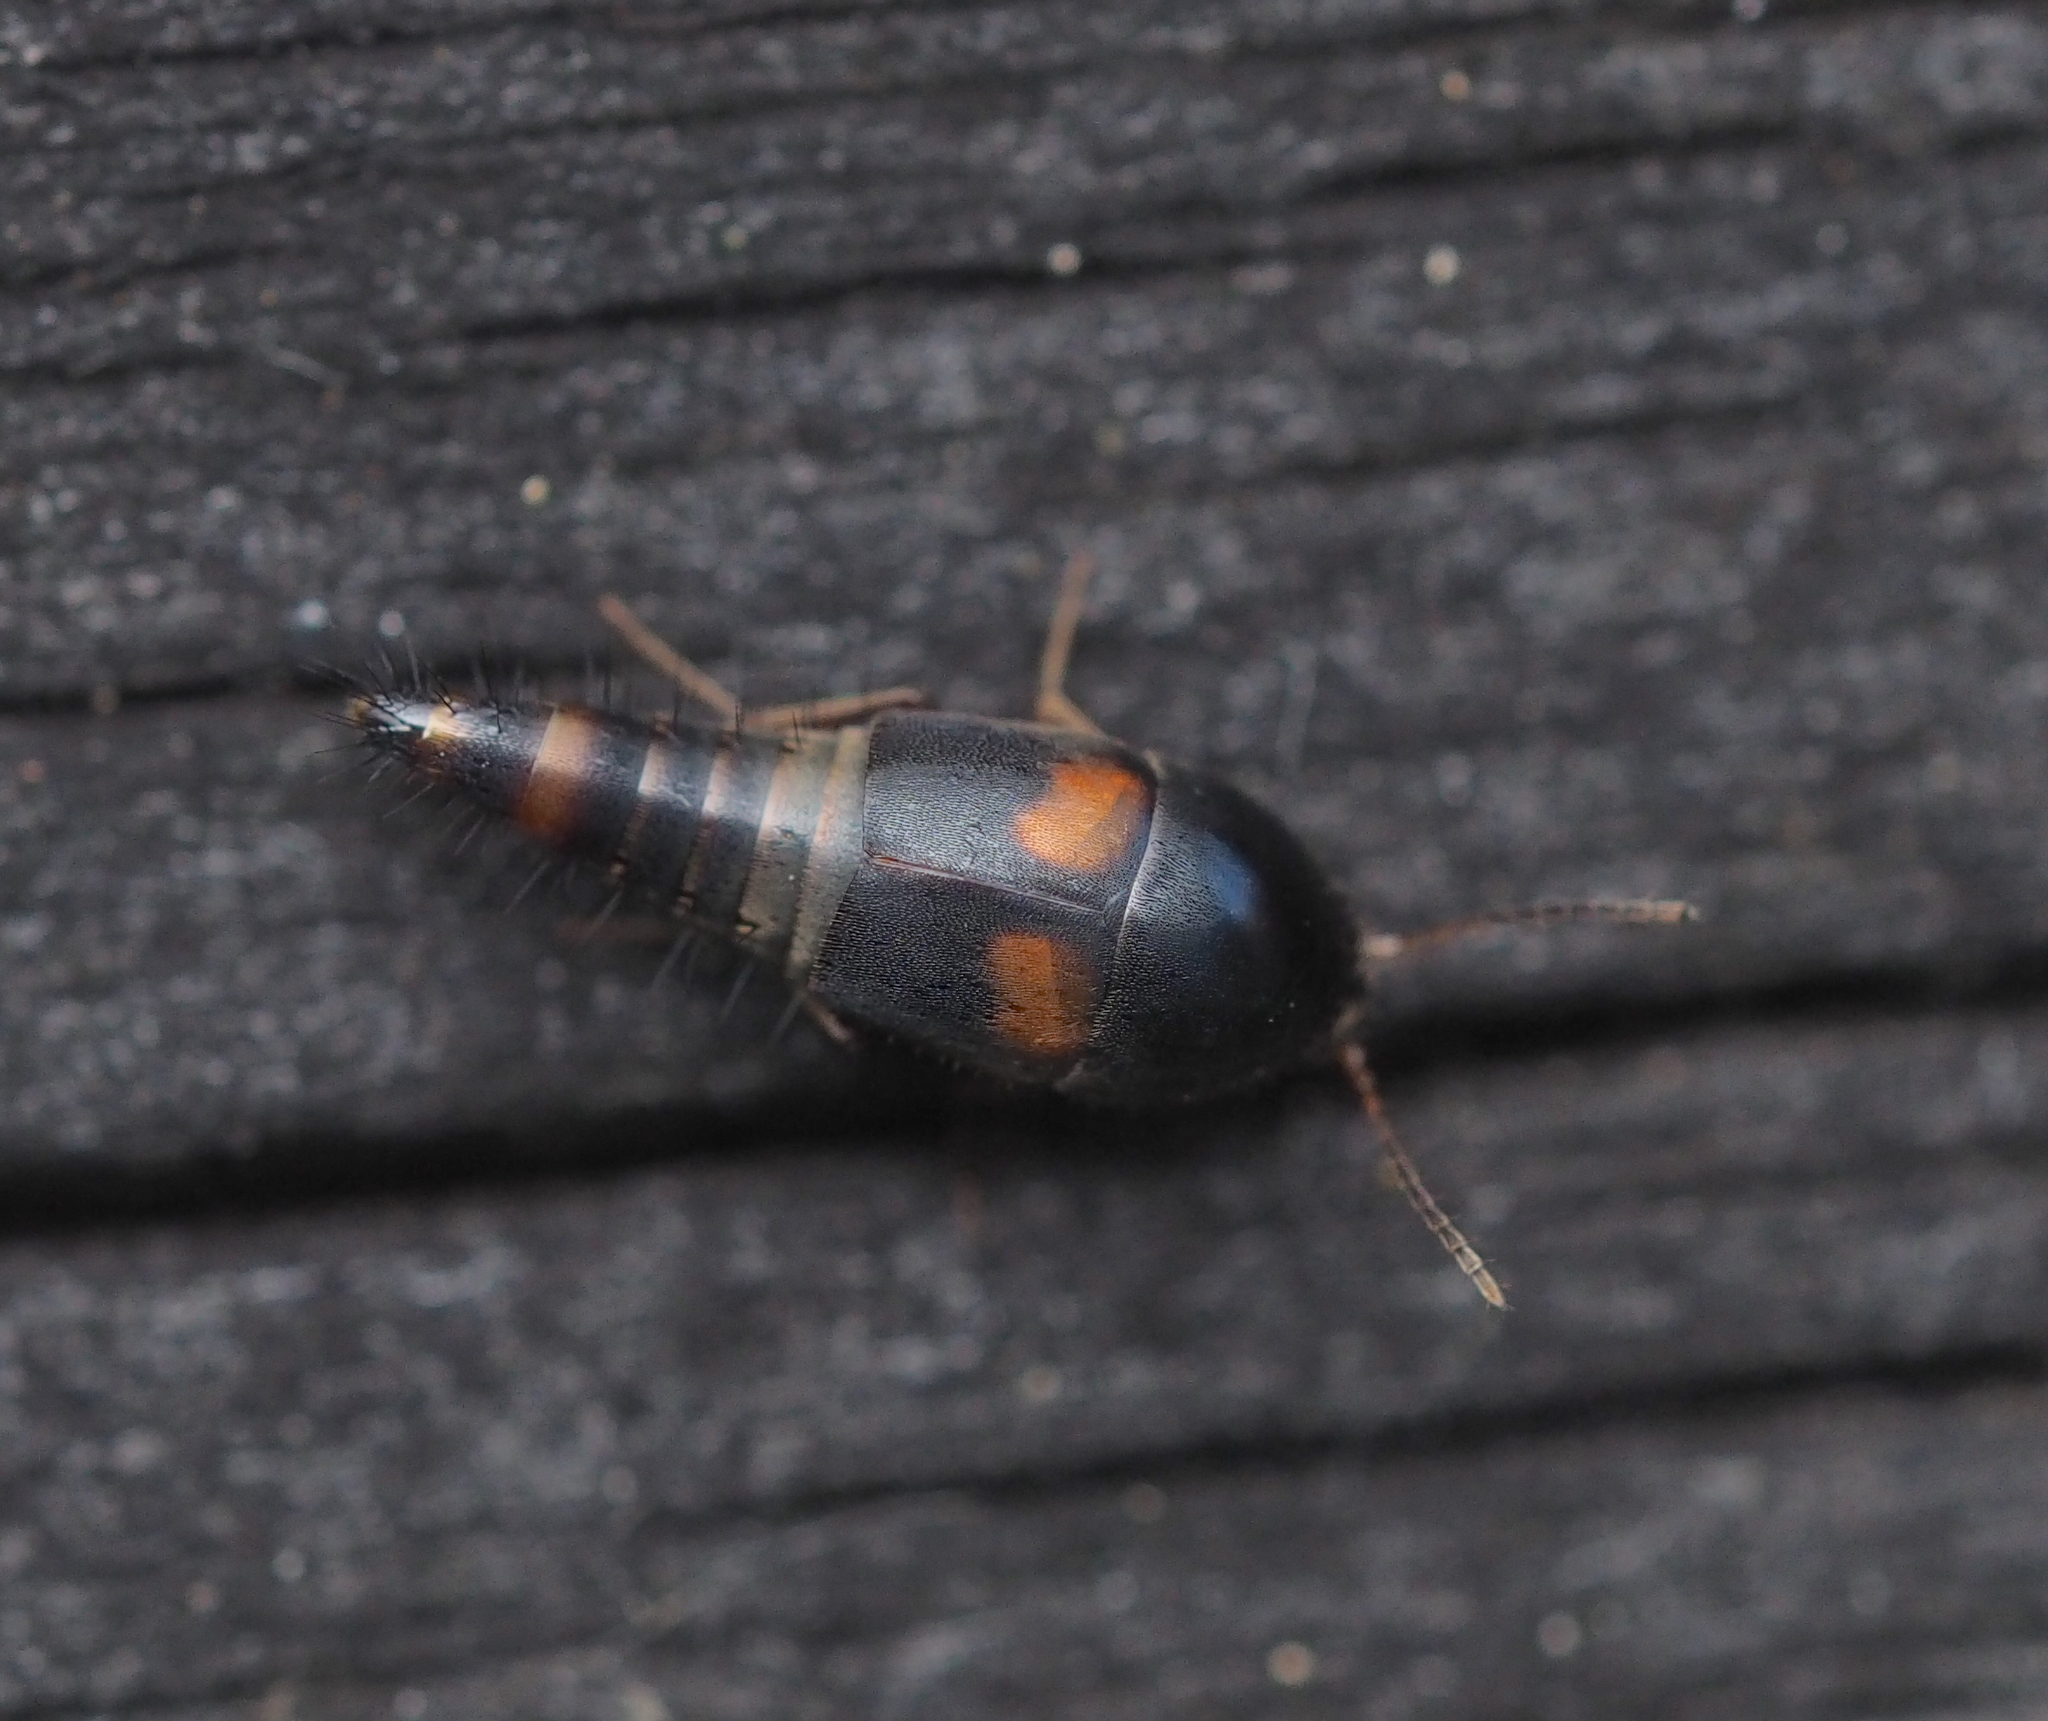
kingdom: Animalia
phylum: Arthropoda
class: Insecta
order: Coleoptera
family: Staphylinidae
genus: Sepedophilus
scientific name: Sepedophilus bipustulatus
